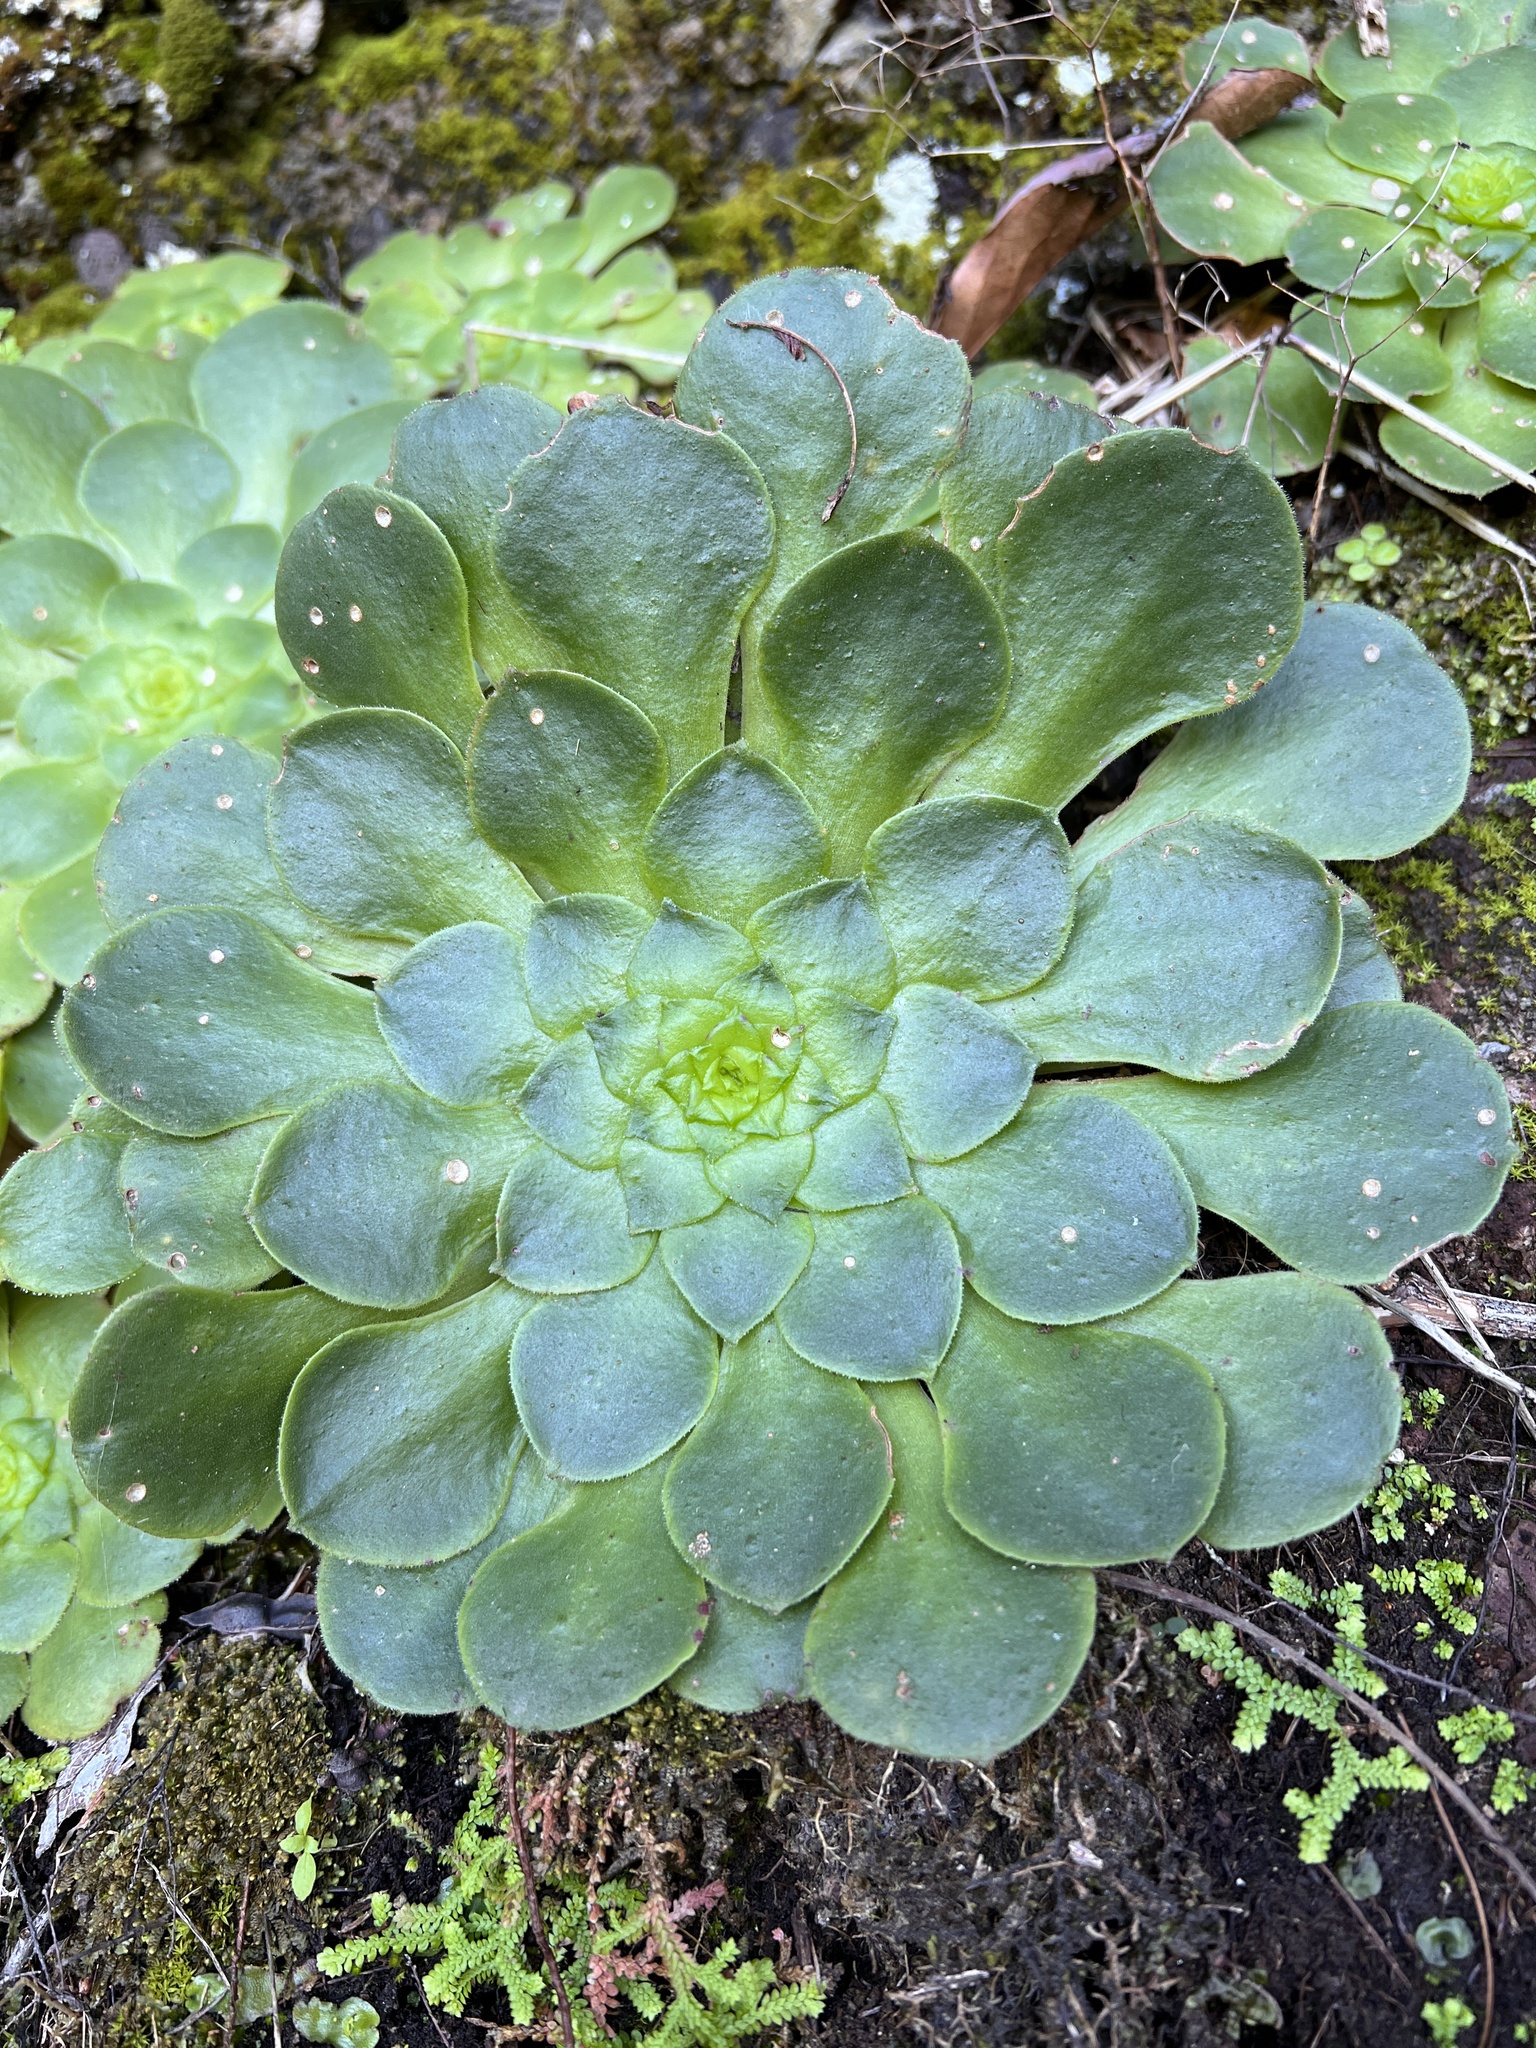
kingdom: Plantae
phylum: Tracheophyta
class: Magnoliopsida
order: Saxifragales
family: Crassulaceae
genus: Aeonium
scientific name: Aeonium glandulosum
